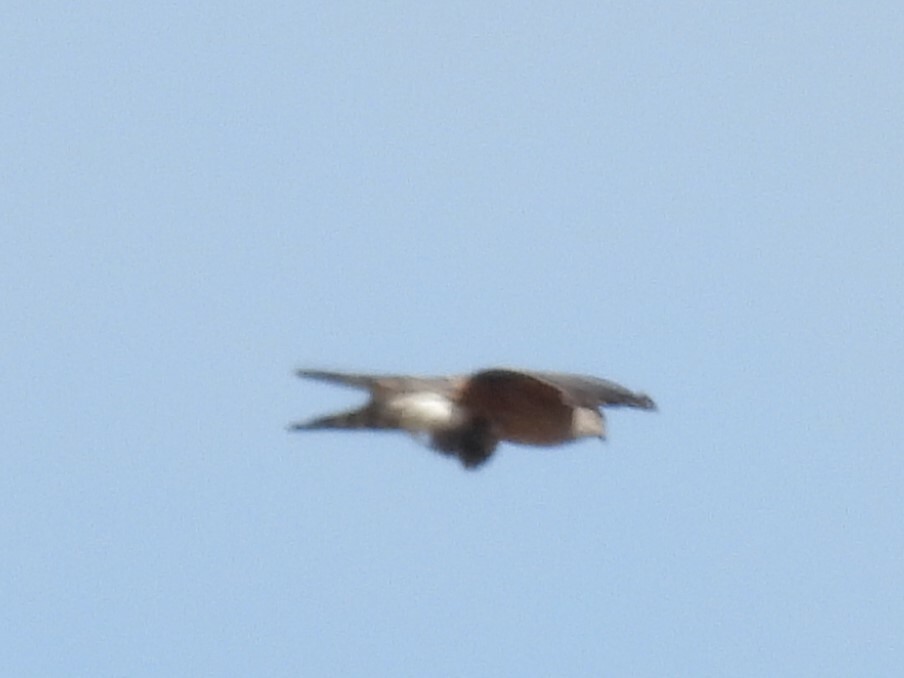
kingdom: Animalia
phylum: Chordata
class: Aves
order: Accipitriformes
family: Accipitridae
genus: Accipiter
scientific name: Accipiter cooperii
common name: Cooper's hawk
